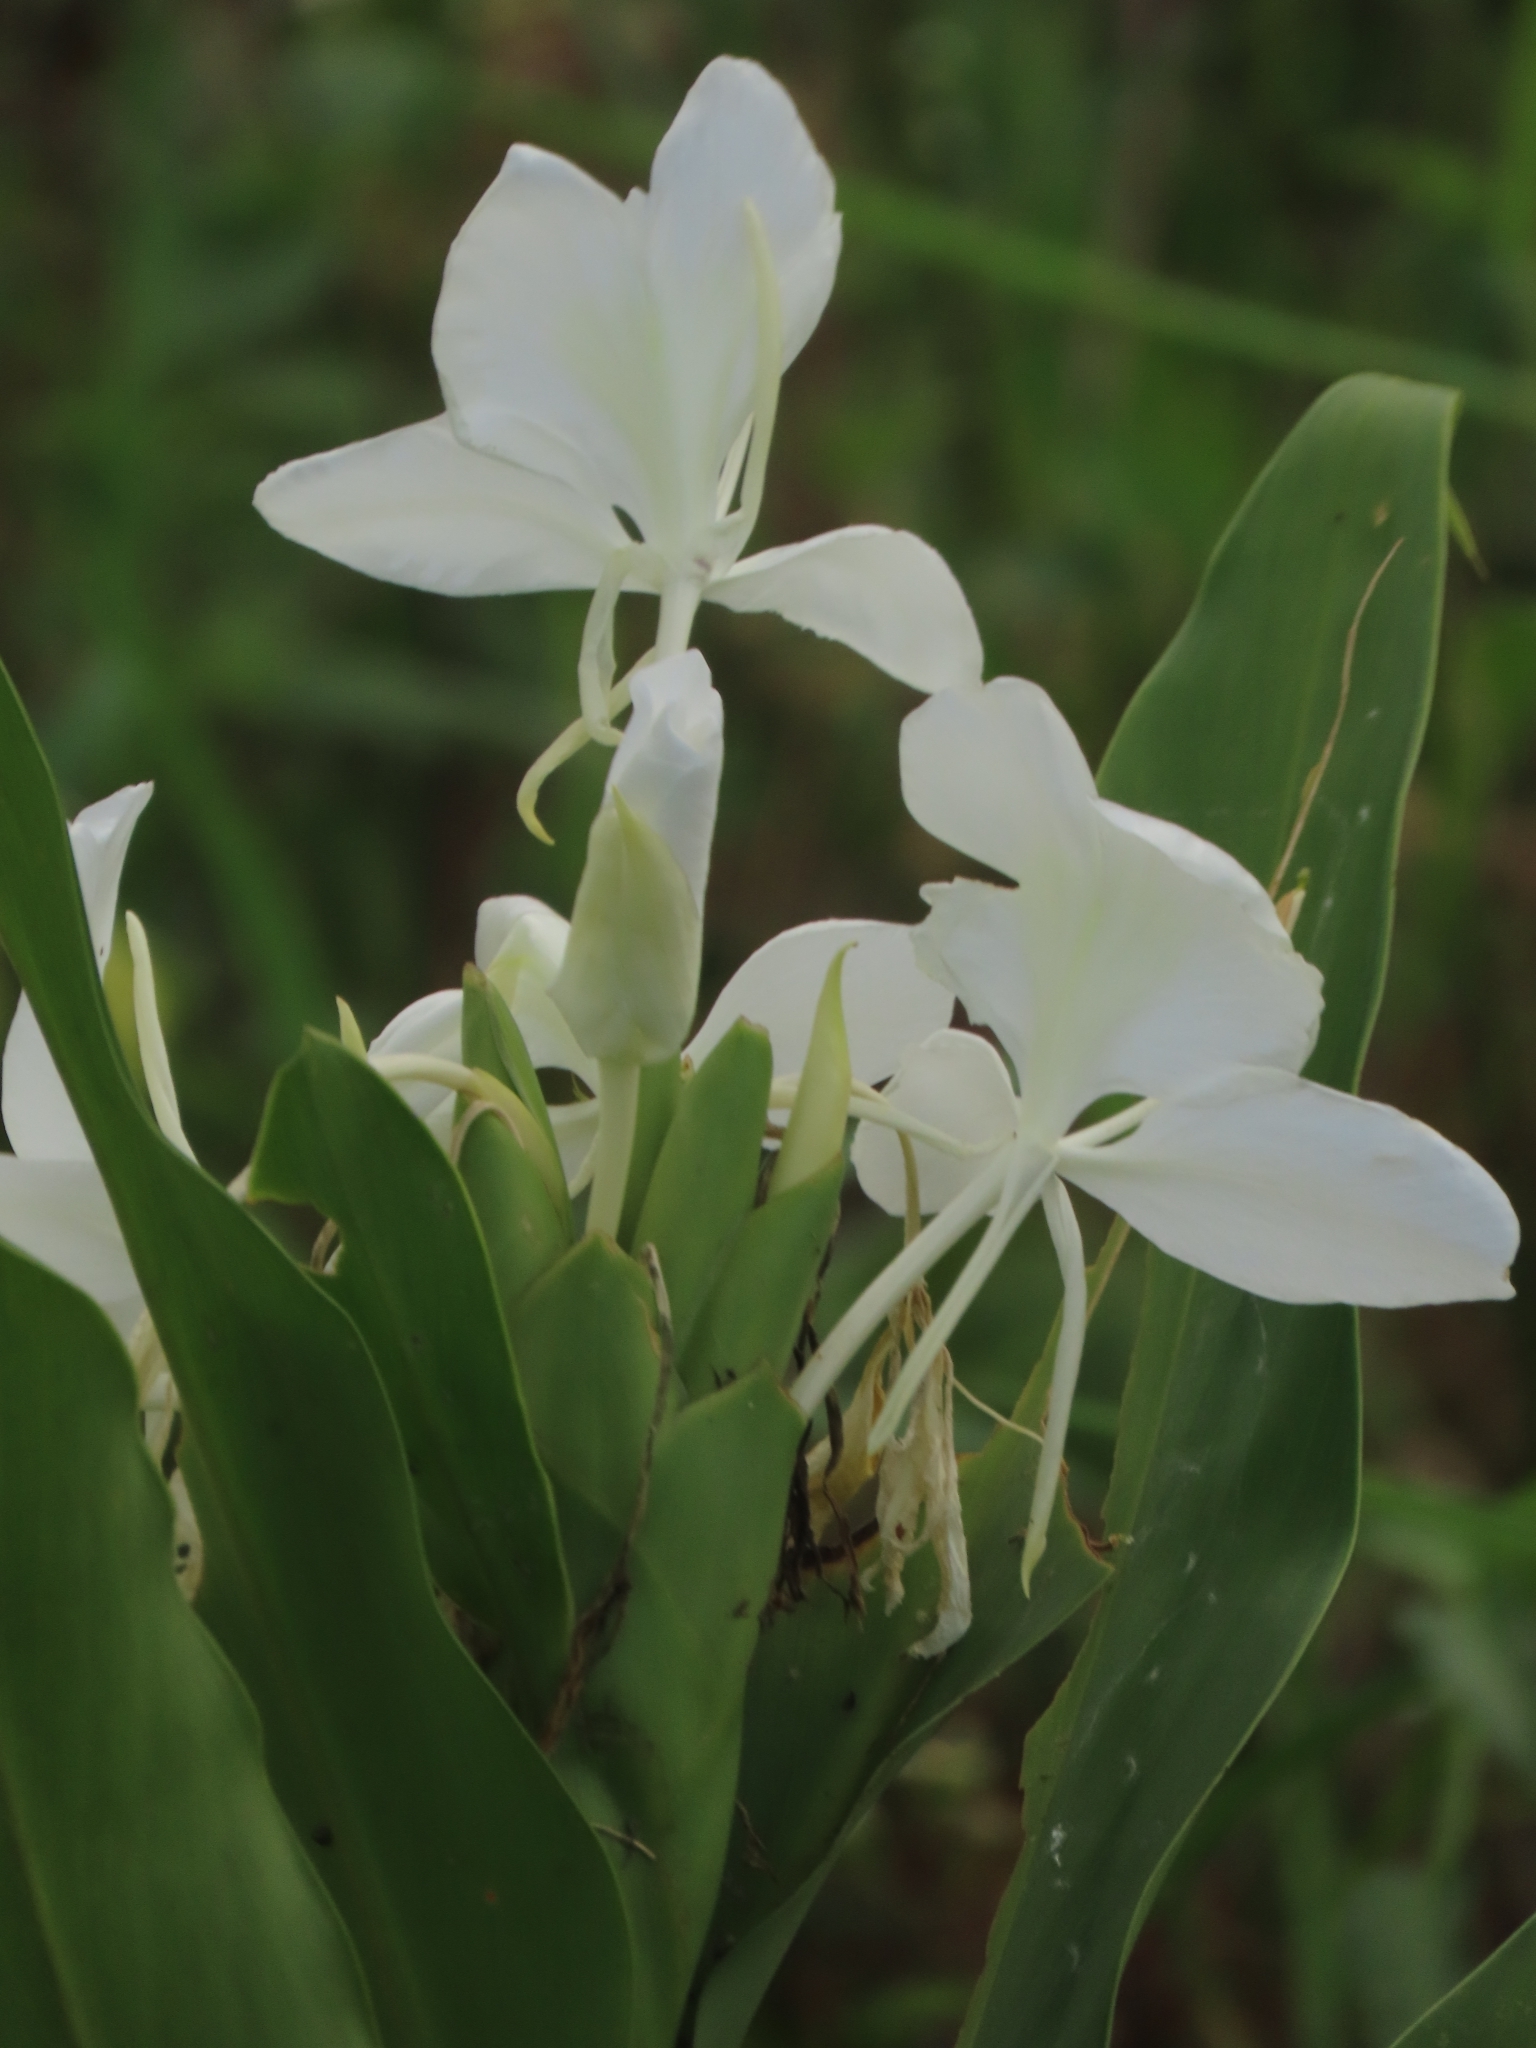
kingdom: Plantae
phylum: Tracheophyta
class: Liliopsida
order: Zingiberales
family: Zingiberaceae
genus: Hedychium
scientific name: Hedychium coronarium
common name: White garland-lily
